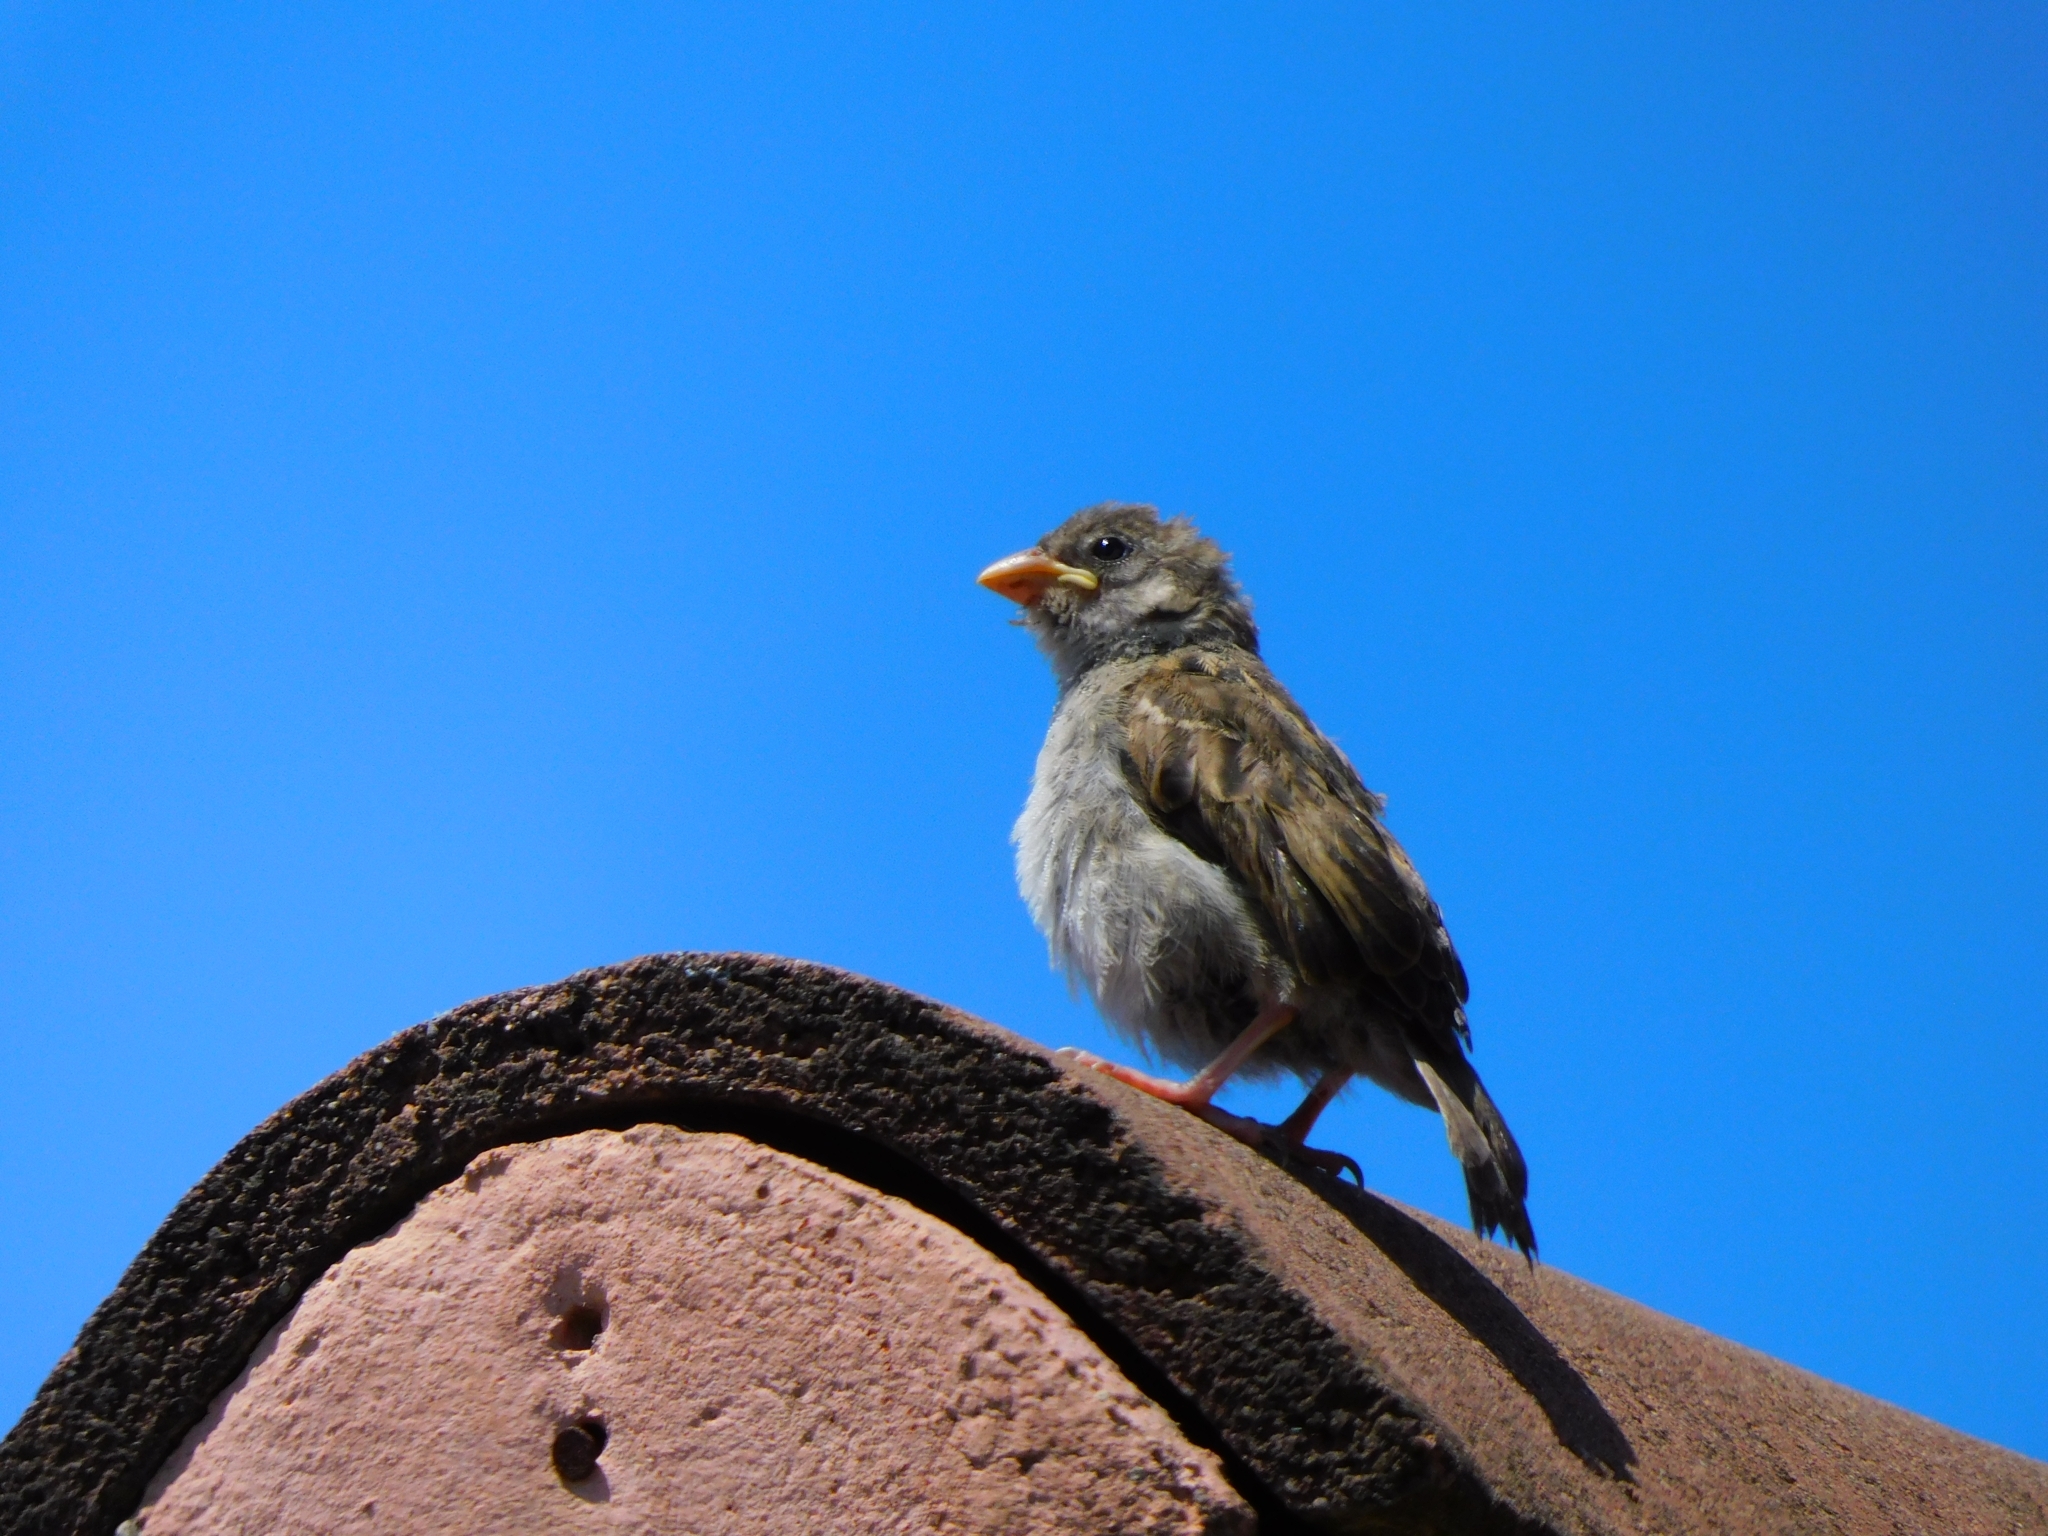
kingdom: Animalia
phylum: Chordata
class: Aves
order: Passeriformes
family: Passeridae
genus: Passer
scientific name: Passer domesticus
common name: House sparrow
